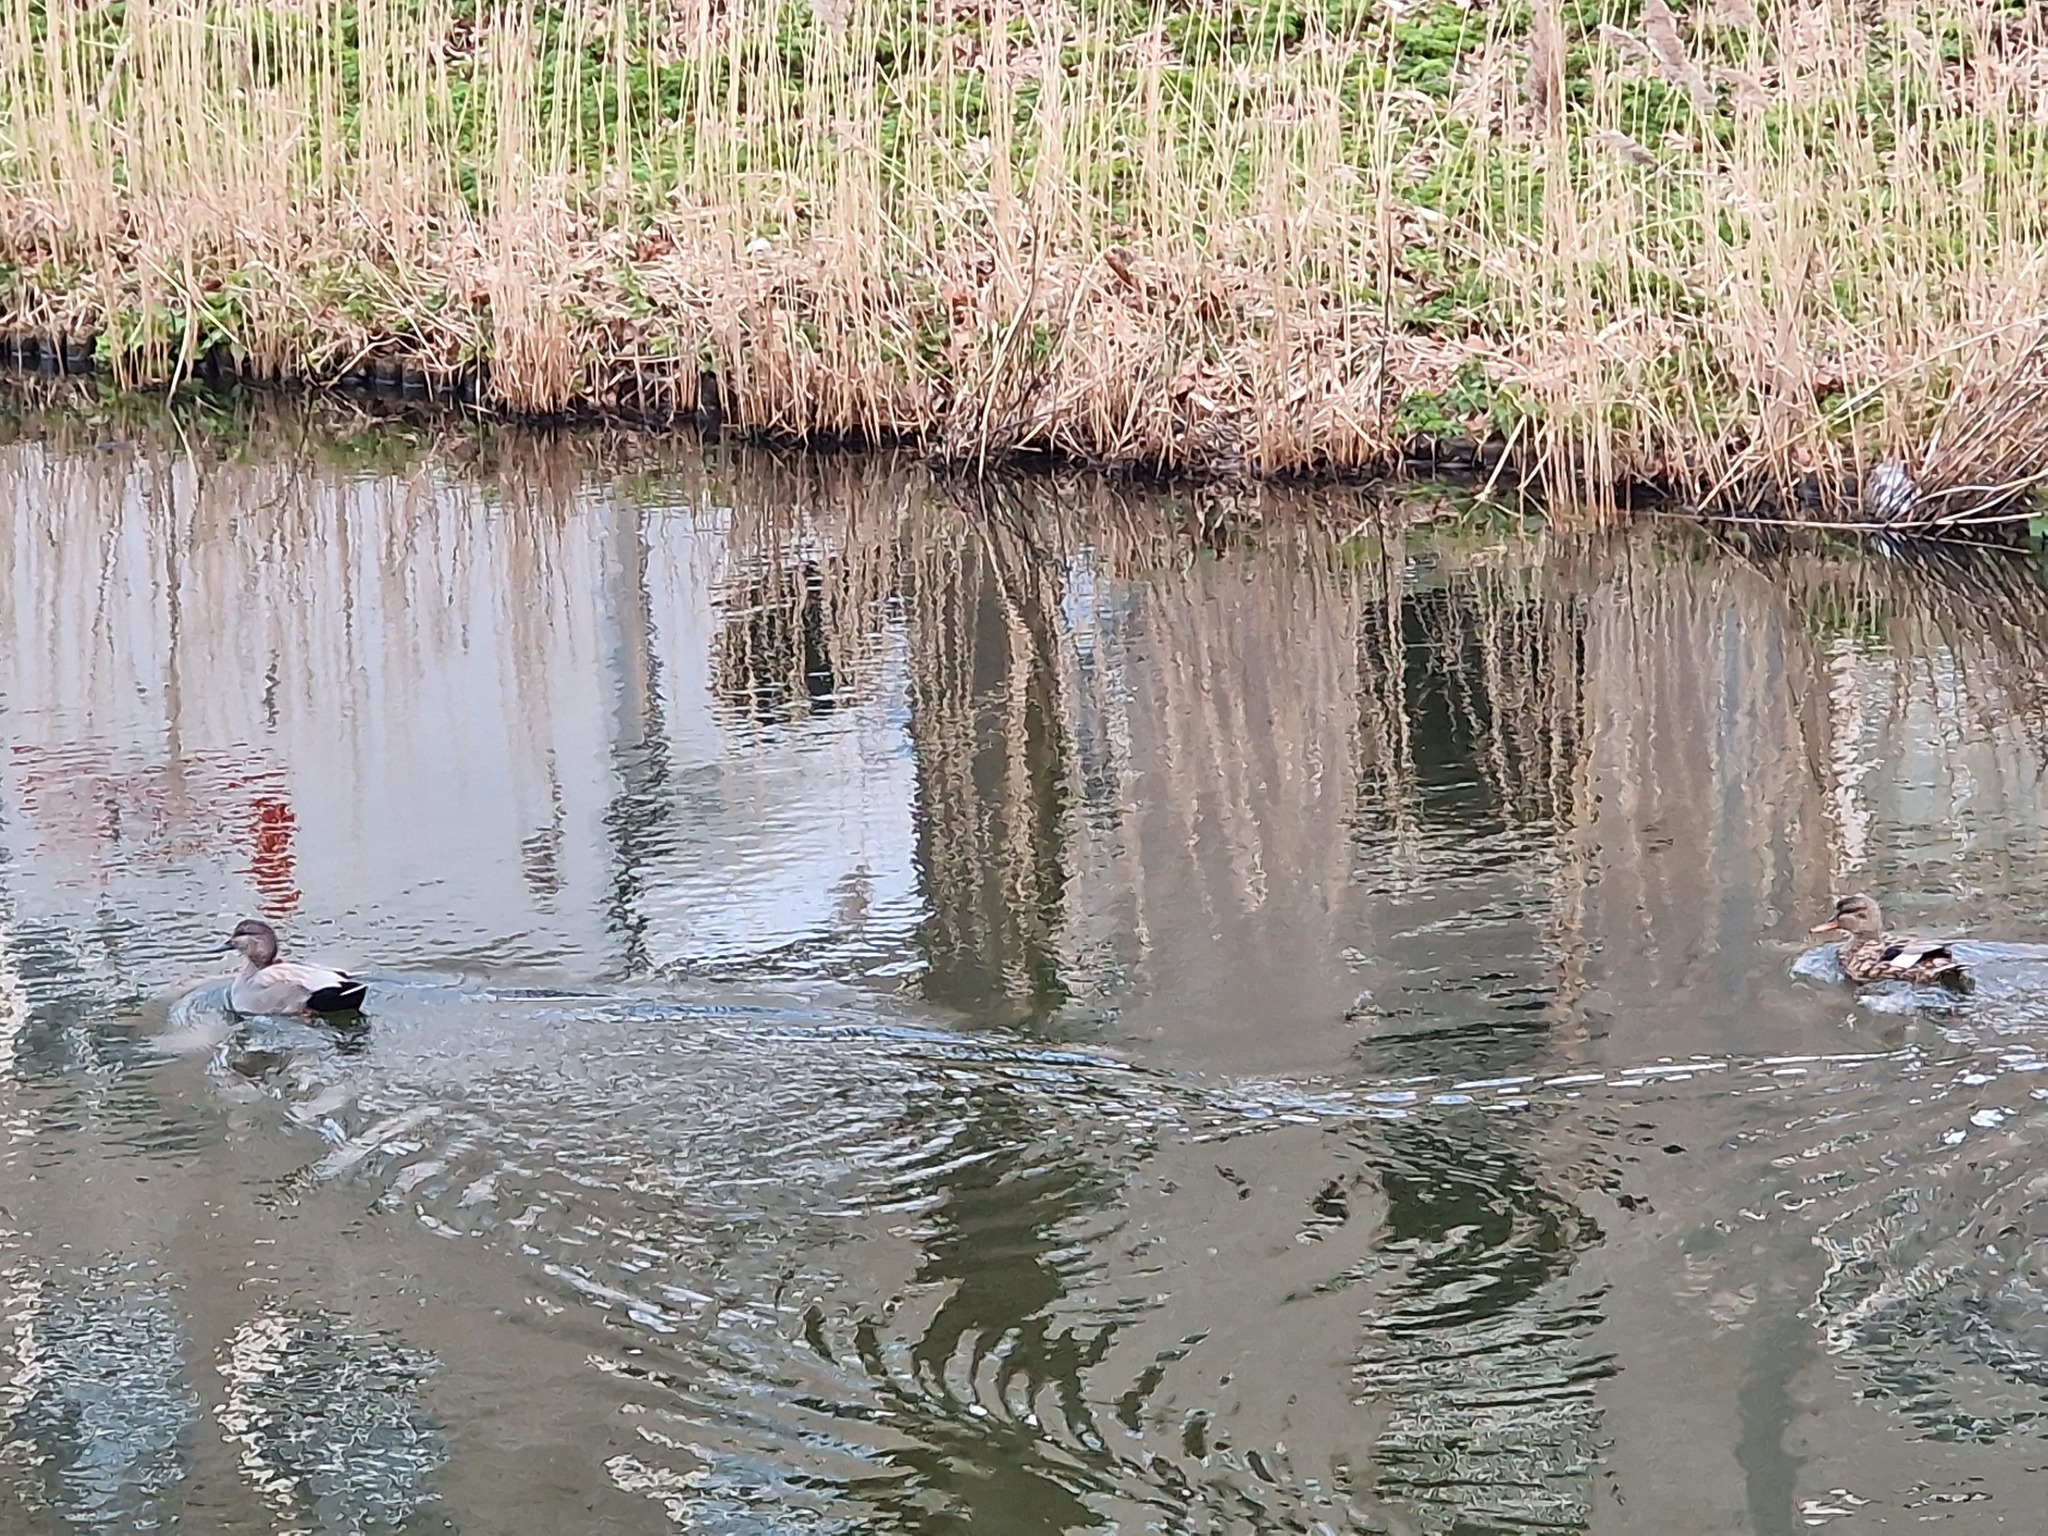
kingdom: Animalia
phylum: Chordata
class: Aves
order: Anseriformes
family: Anatidae
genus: Mareca
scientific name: Mareca strepera
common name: Gadwall
